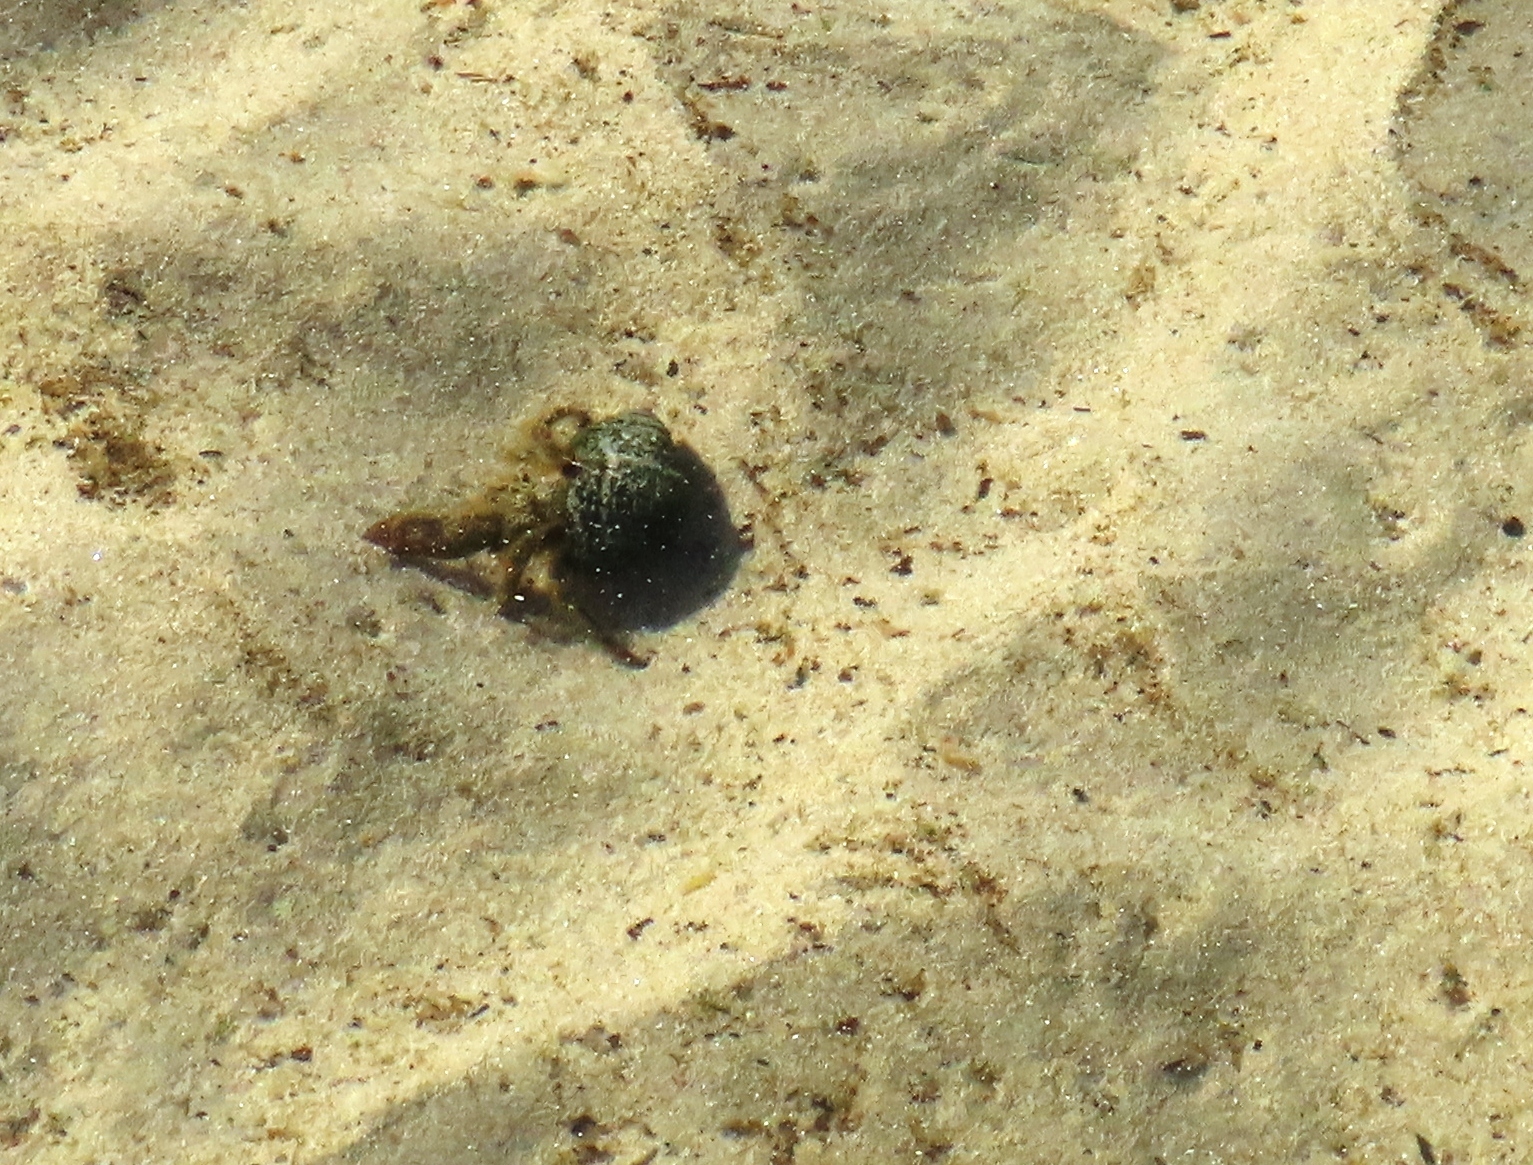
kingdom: Animalia
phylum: Arthropoda
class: Malacostraca
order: Decapoda
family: Diogenidae
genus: Diogenes
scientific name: Diogenes brevirostris
